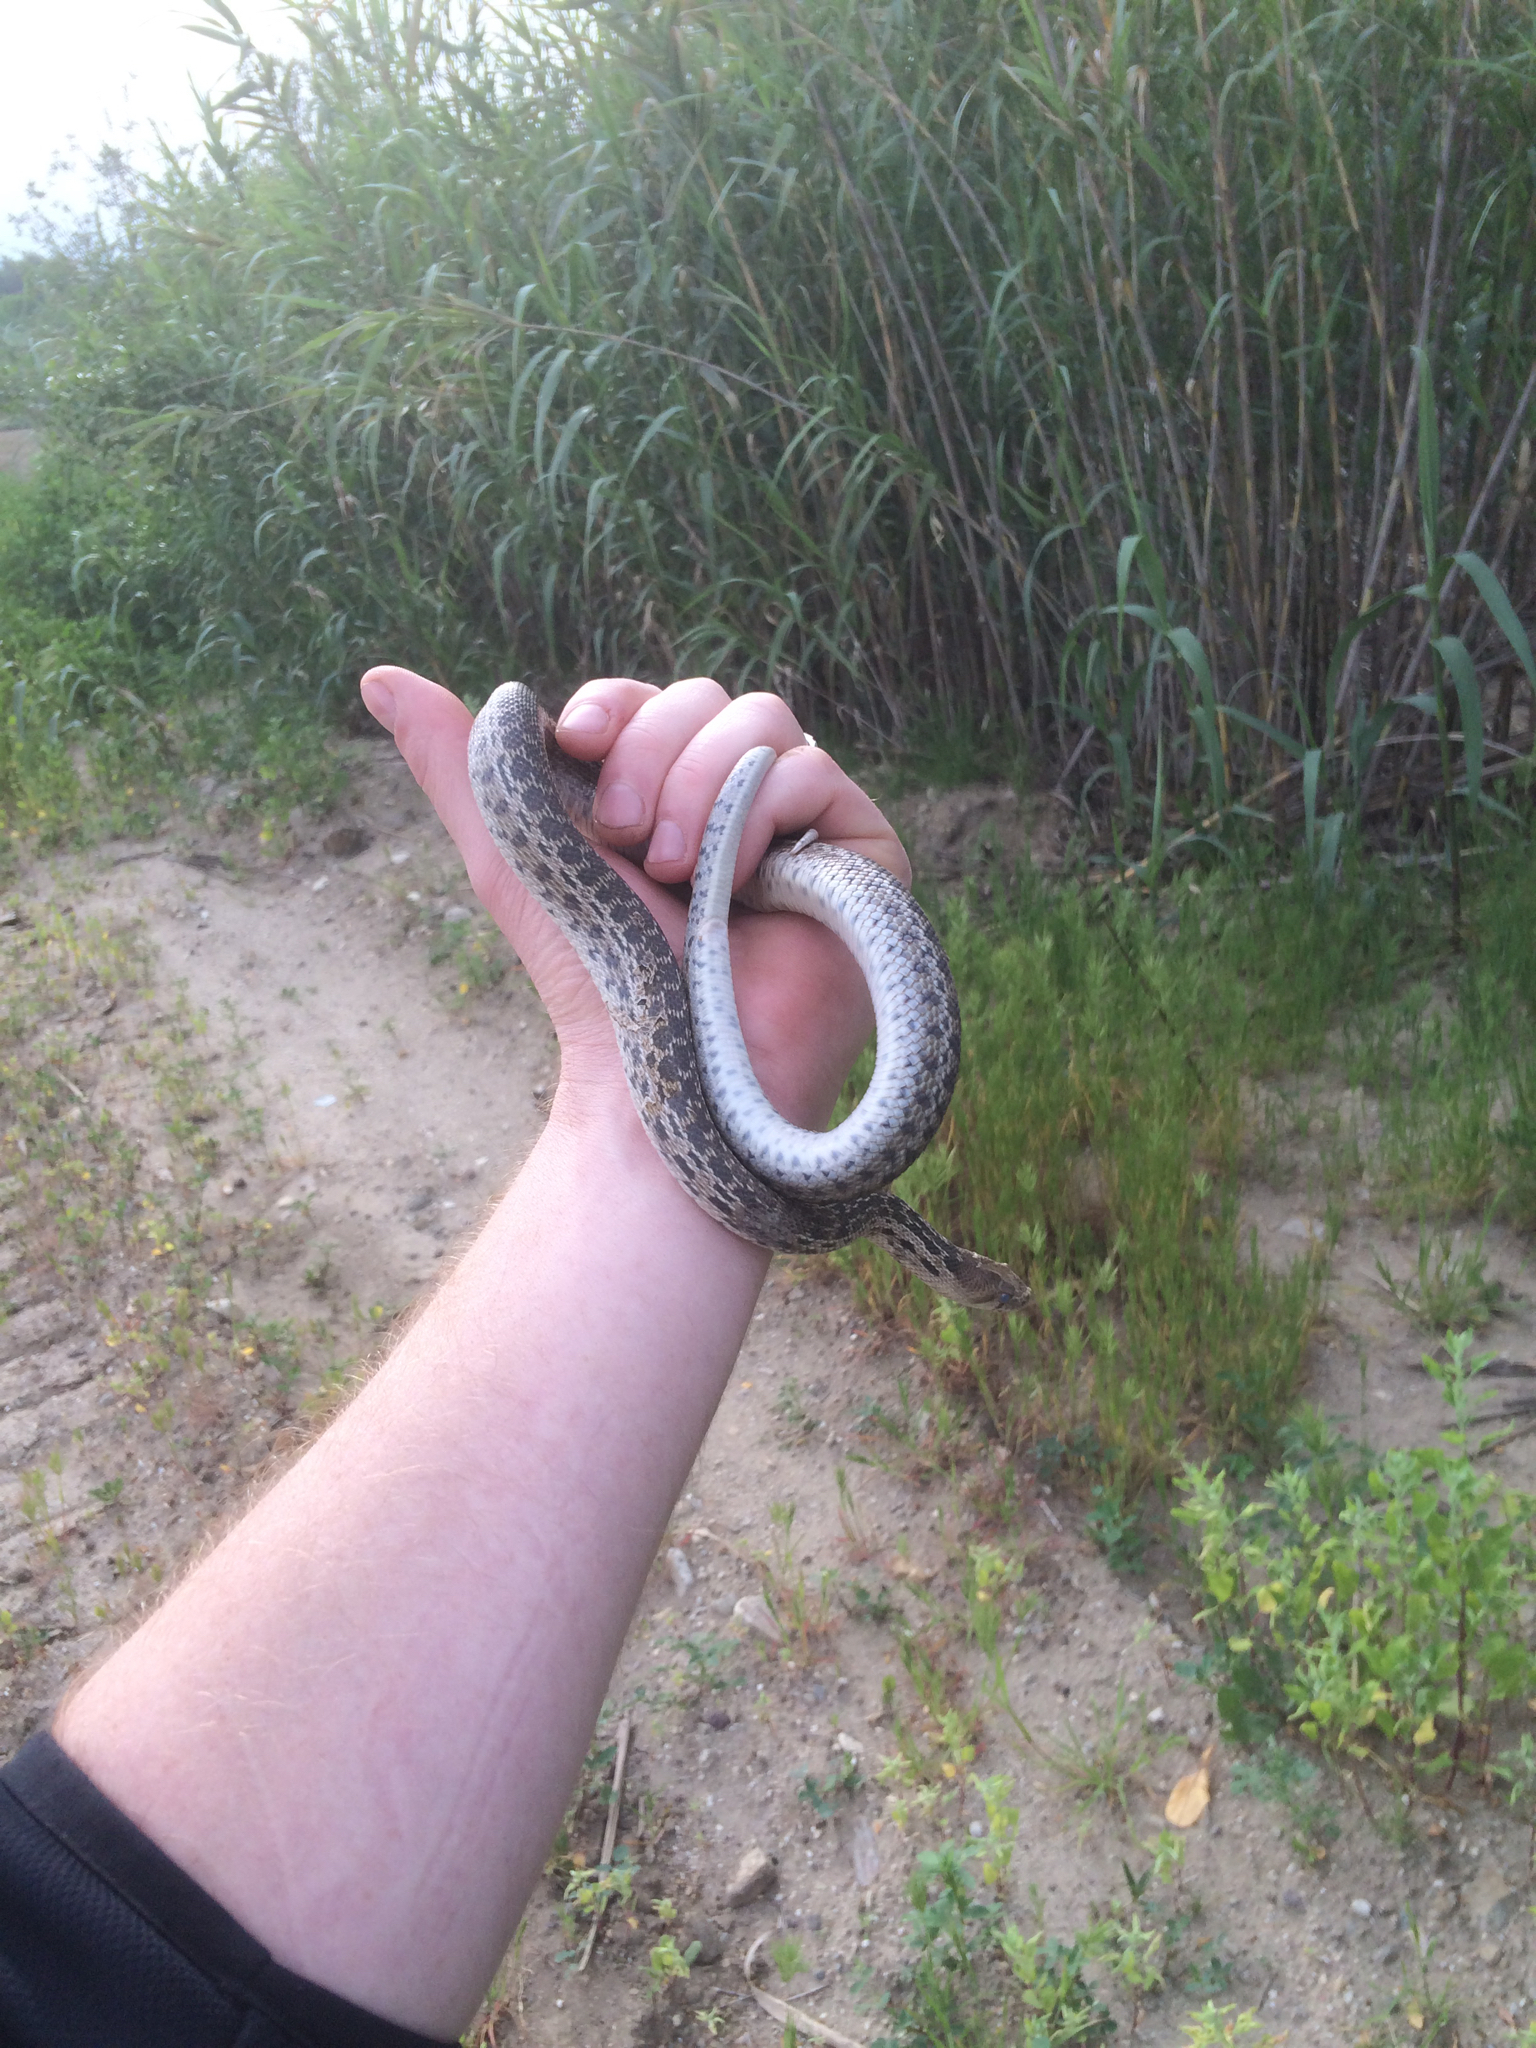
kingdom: Animalia
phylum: Chordata
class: Squamata
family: Colubridae
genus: Pituophis
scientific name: Pituophis catenifer
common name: Gopher snake
